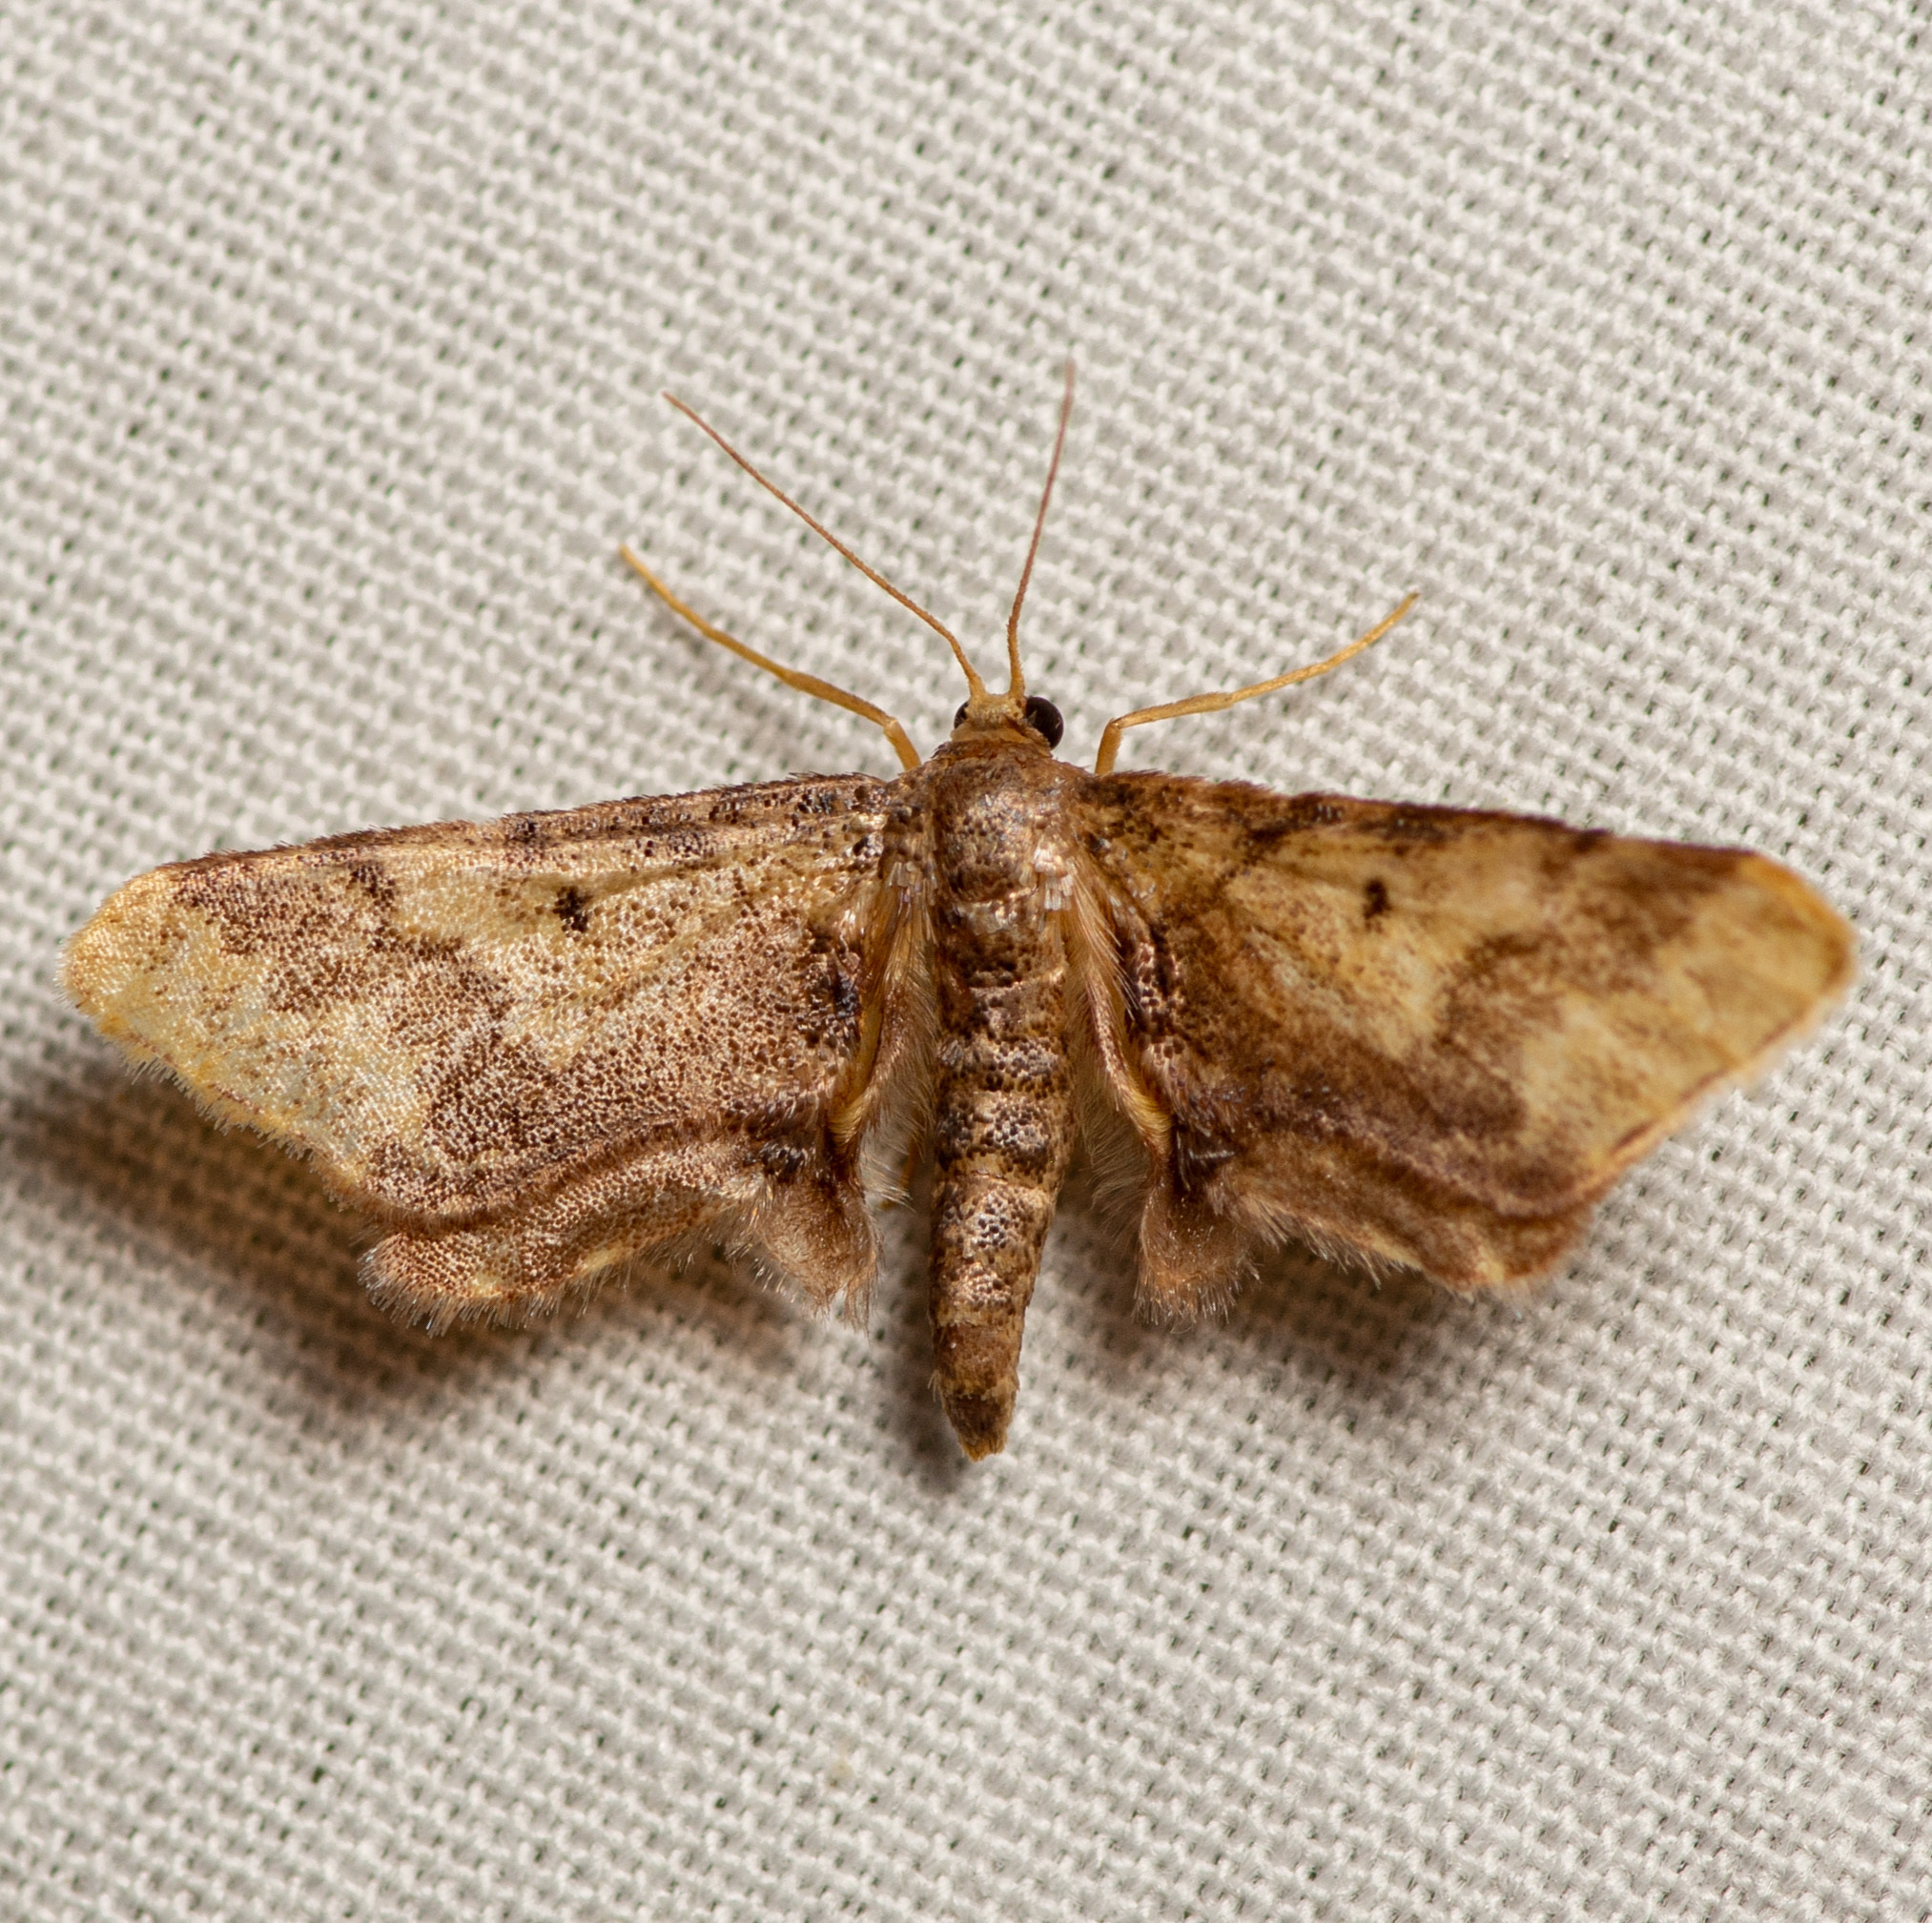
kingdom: Animalia
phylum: Arthropoda
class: Insecta
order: Lepidoptera
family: Geometridae
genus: Idaea
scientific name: Idaea furciferata
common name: Notch-winged wave
